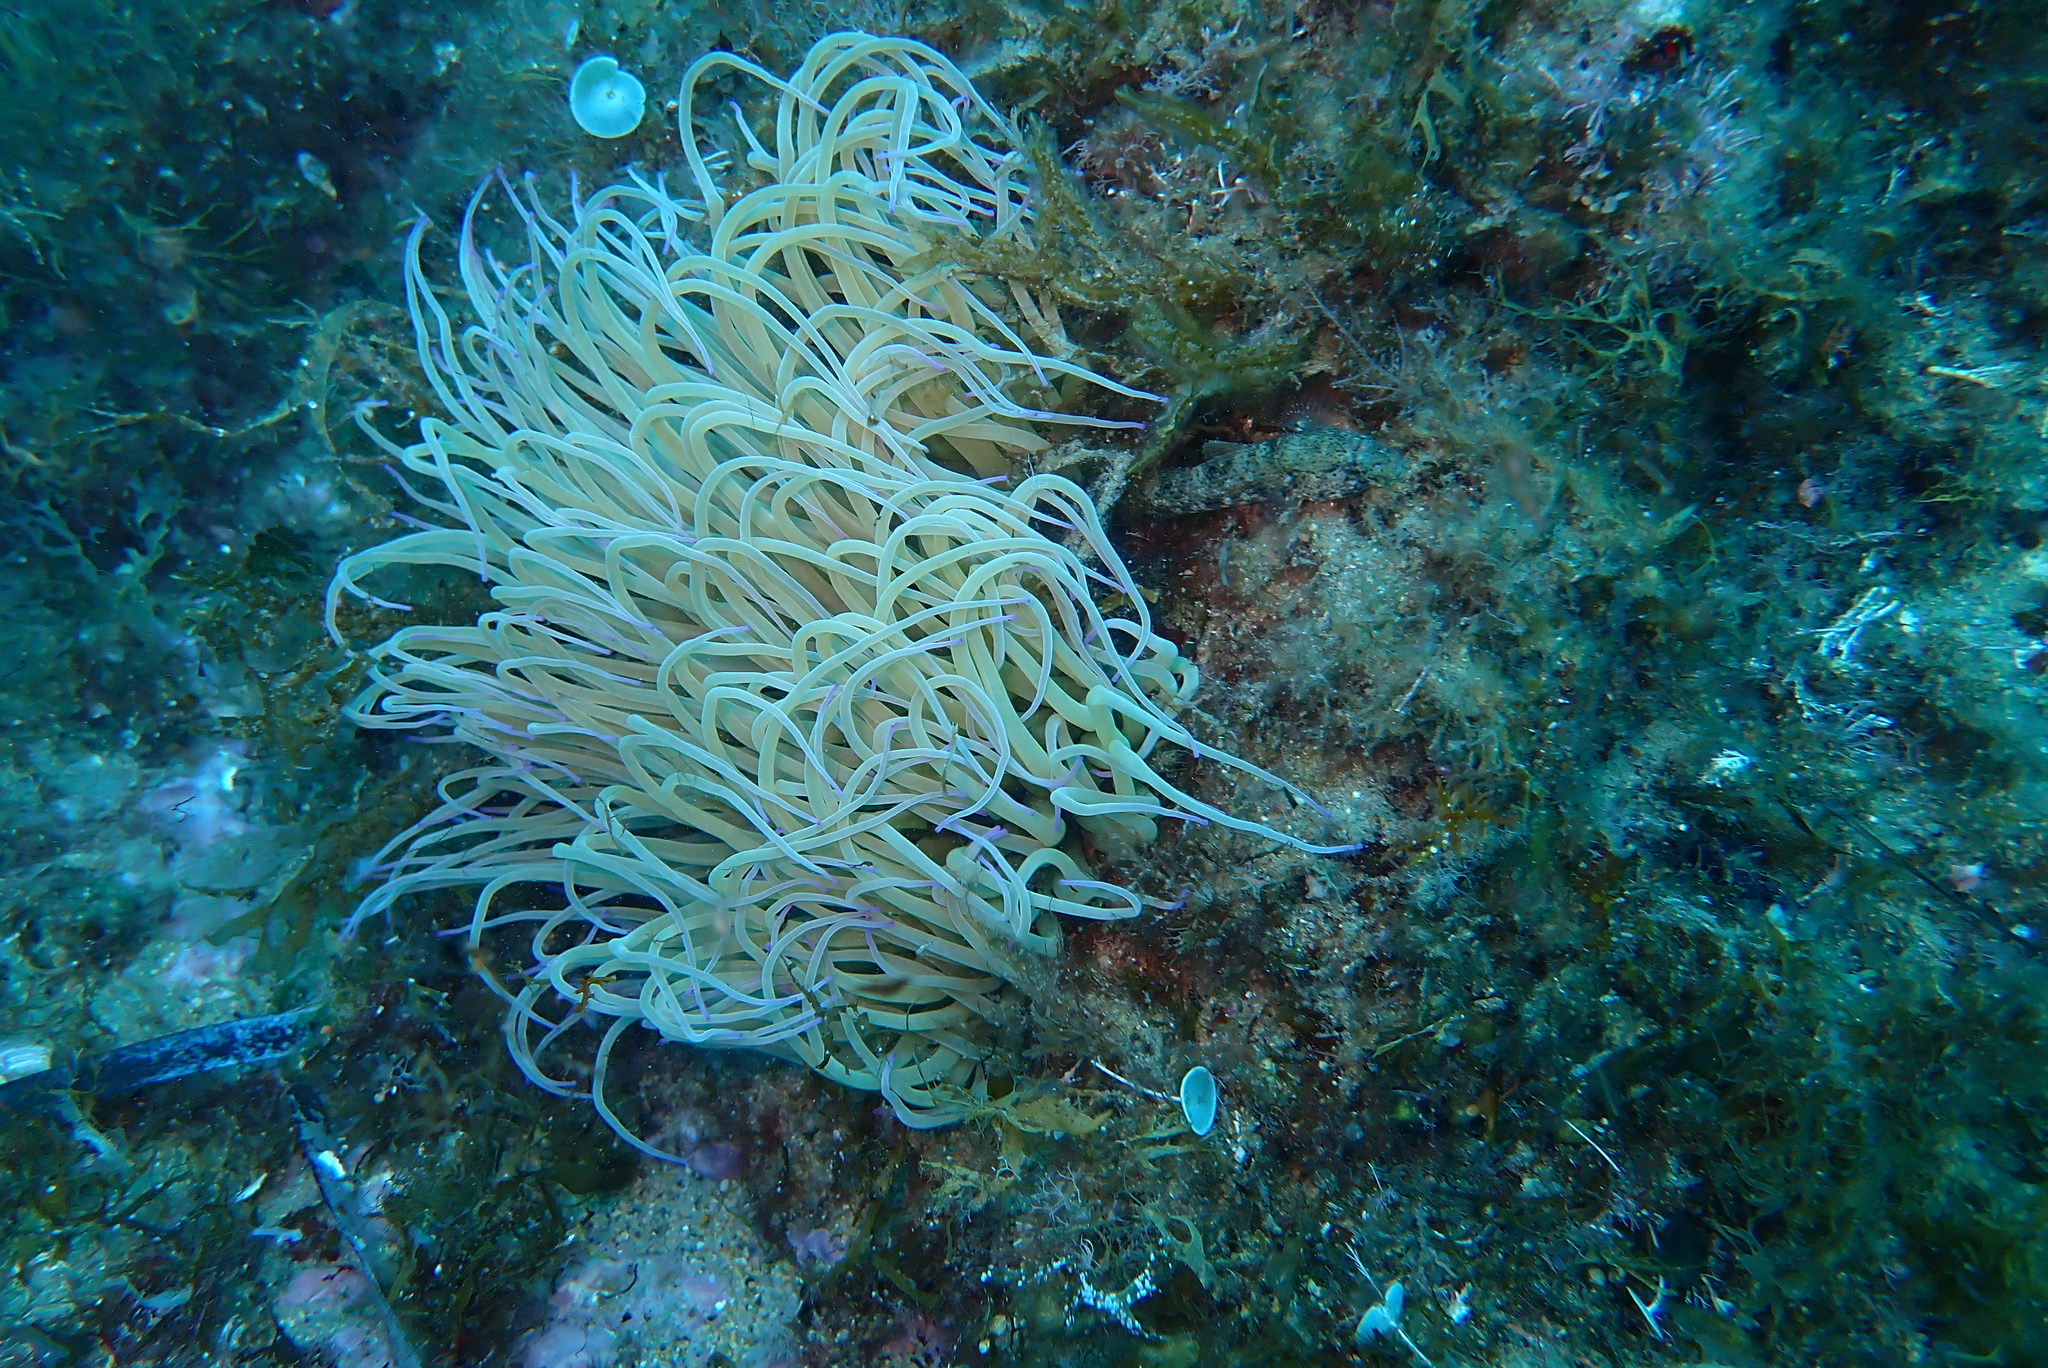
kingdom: Animalia
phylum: Cnidaria
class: Anthozoa
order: Actiniaria
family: Actiniidae
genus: Anemonia
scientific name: Anemonia viridis
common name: Snakelocks anemone
